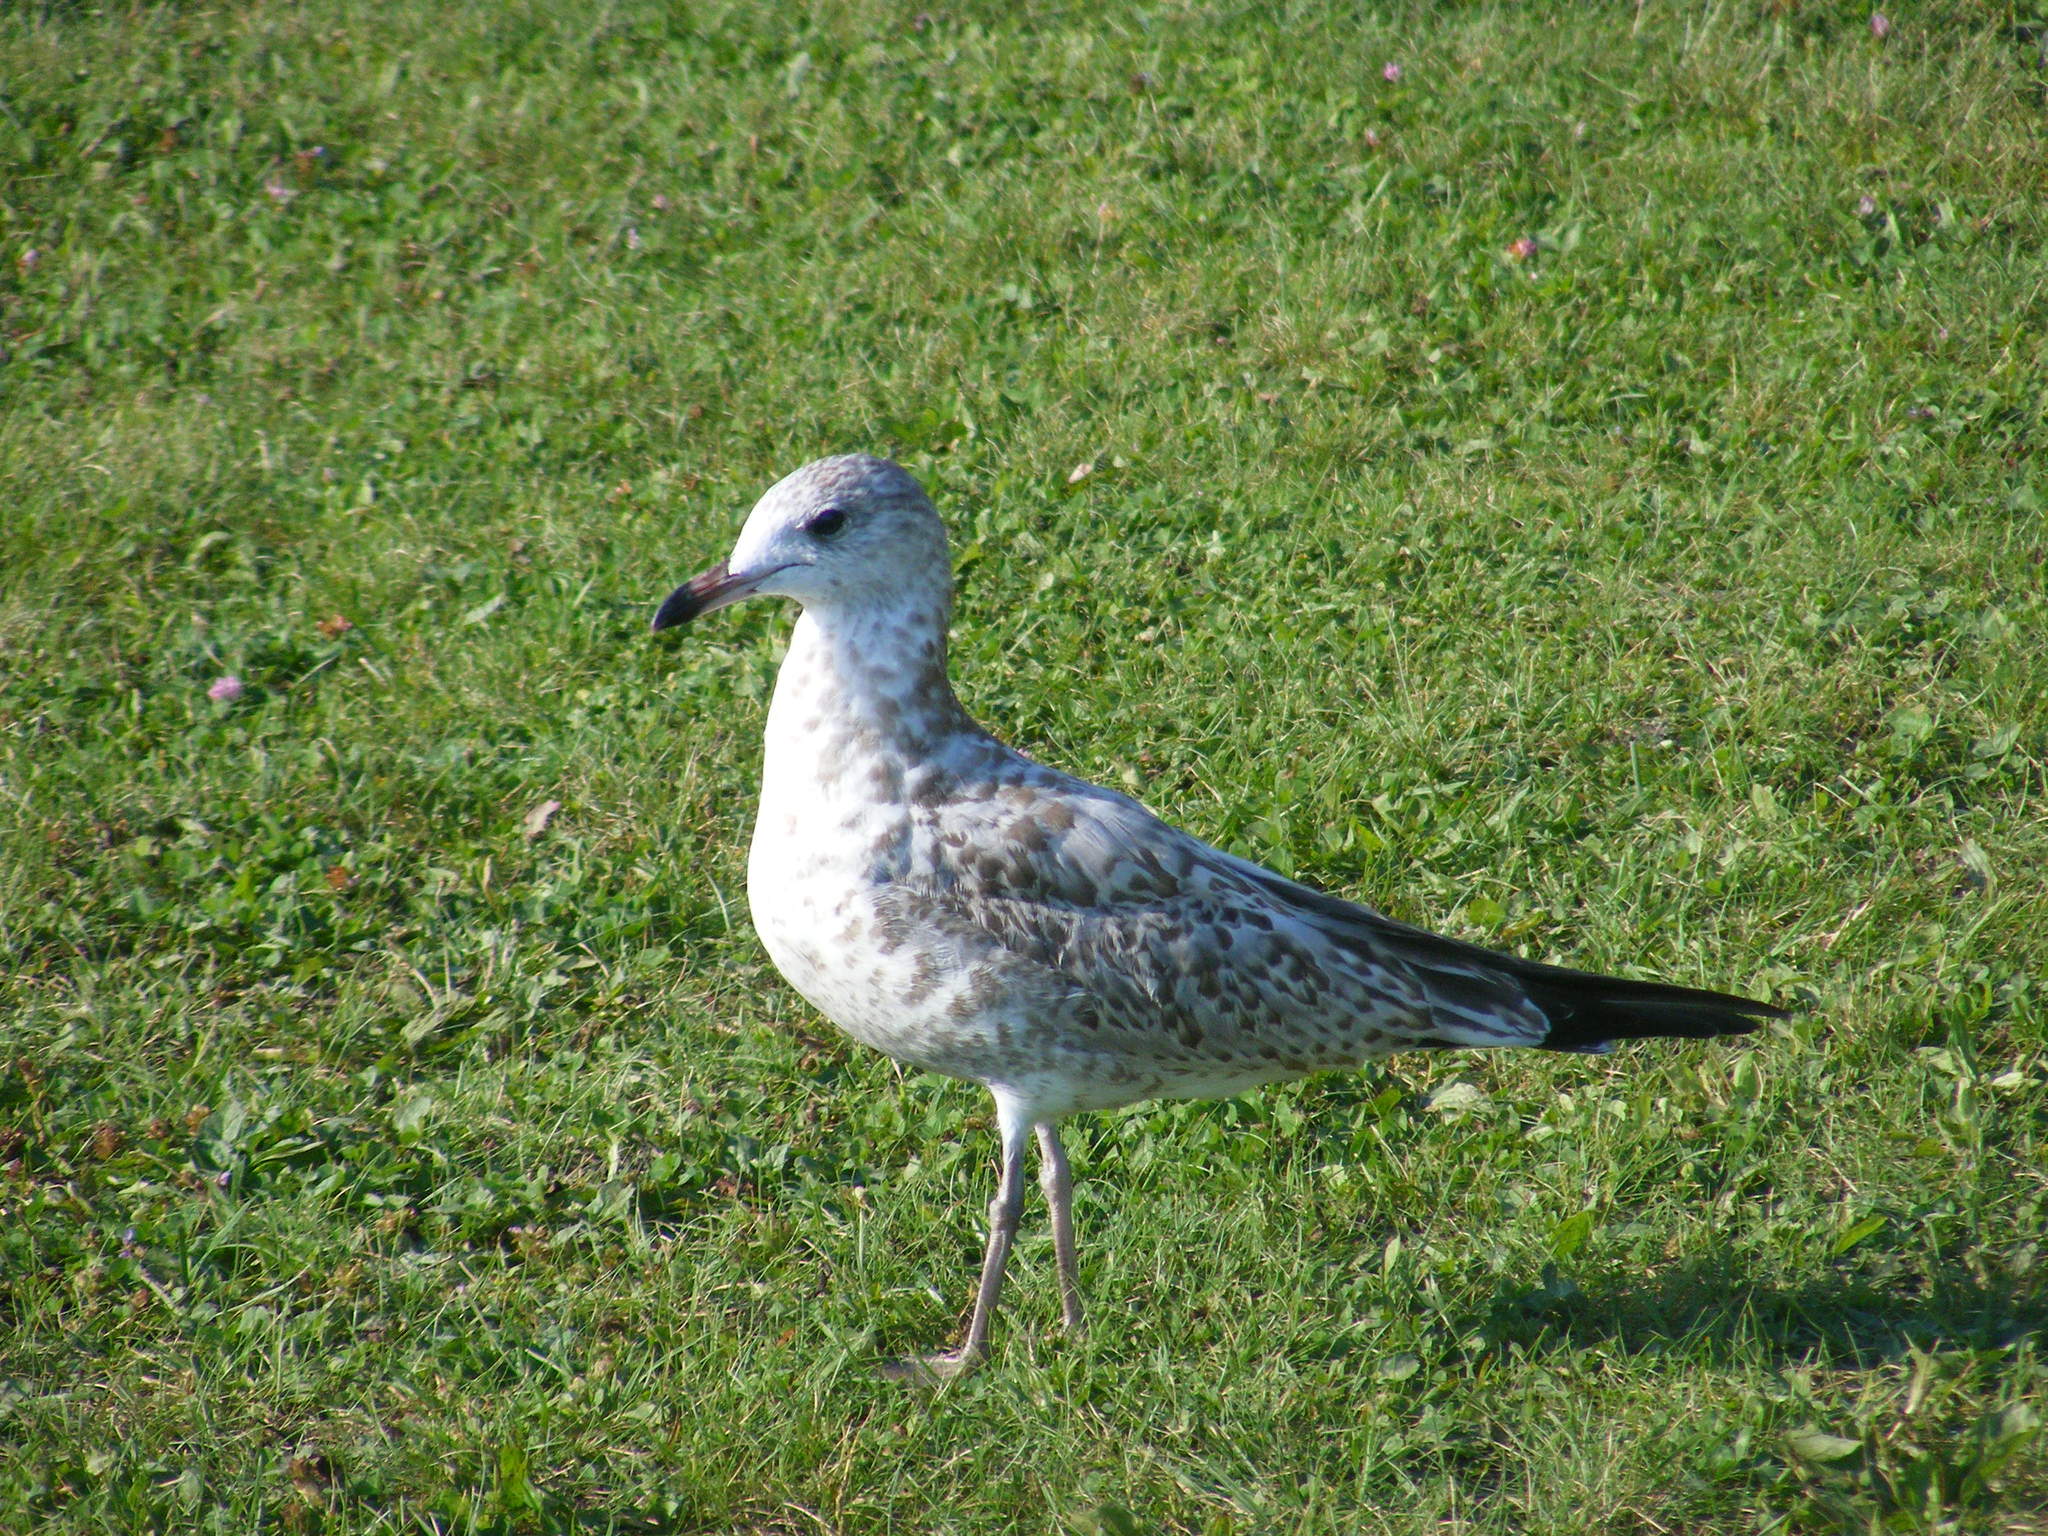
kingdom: Animalia
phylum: Chordata
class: Aves
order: Charadriiformes
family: Laridae
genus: Larus
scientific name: Larus delawarensis
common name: Ring-billed gull
